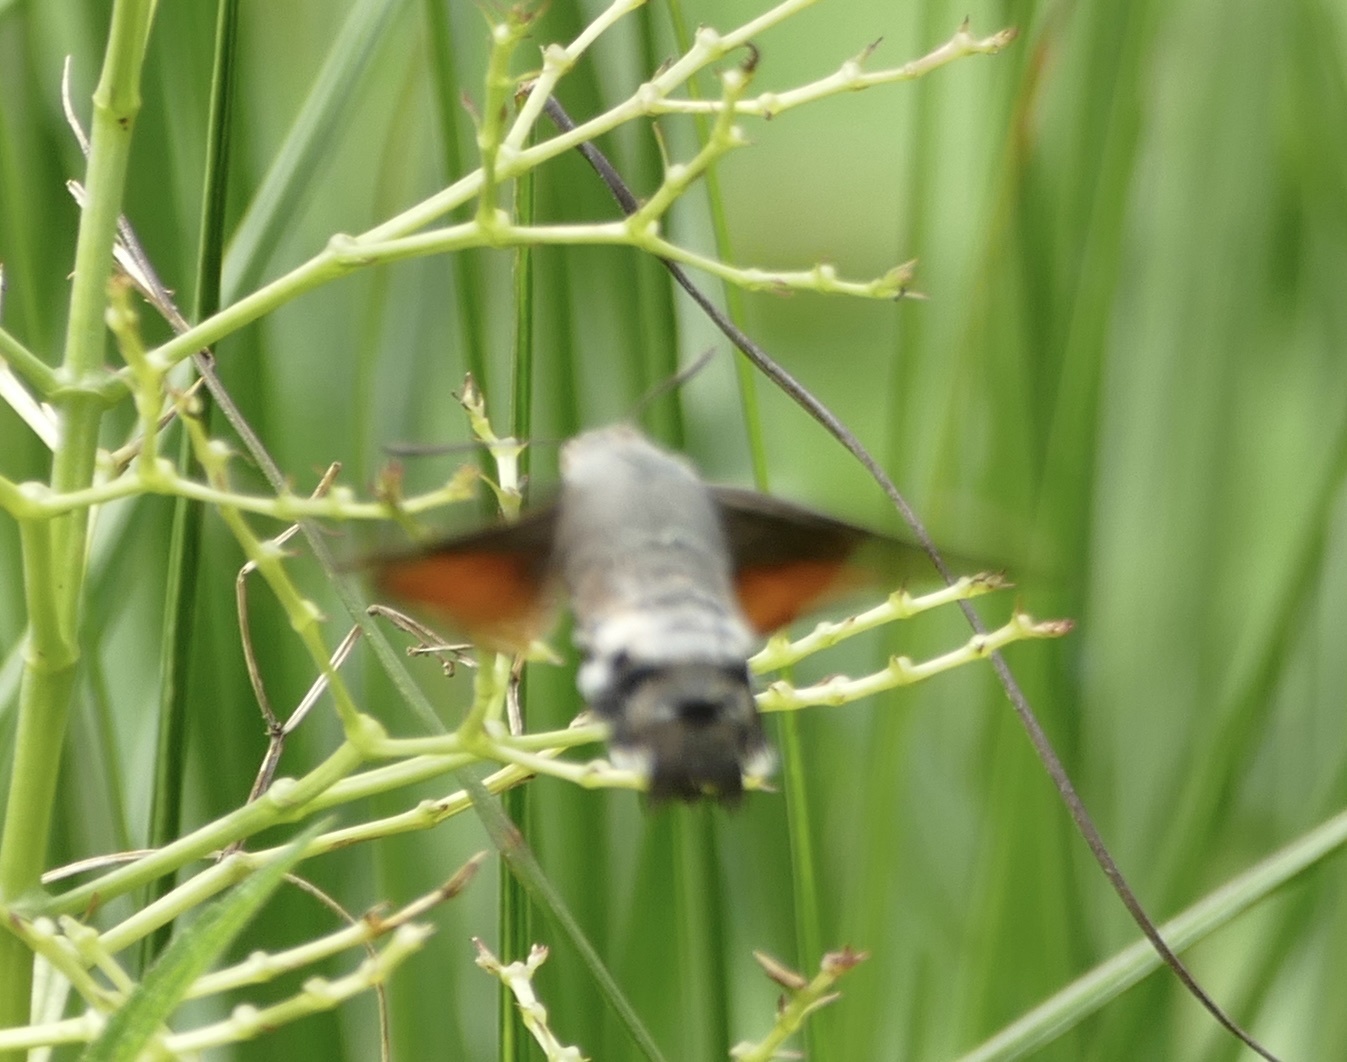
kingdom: Animalia
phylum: Arthropoda
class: Insecta
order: Lepidoptera
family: Sphingidae
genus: Macroglossum
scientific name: Macroglossum stellatarum
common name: Humming-bird hawk-moth
